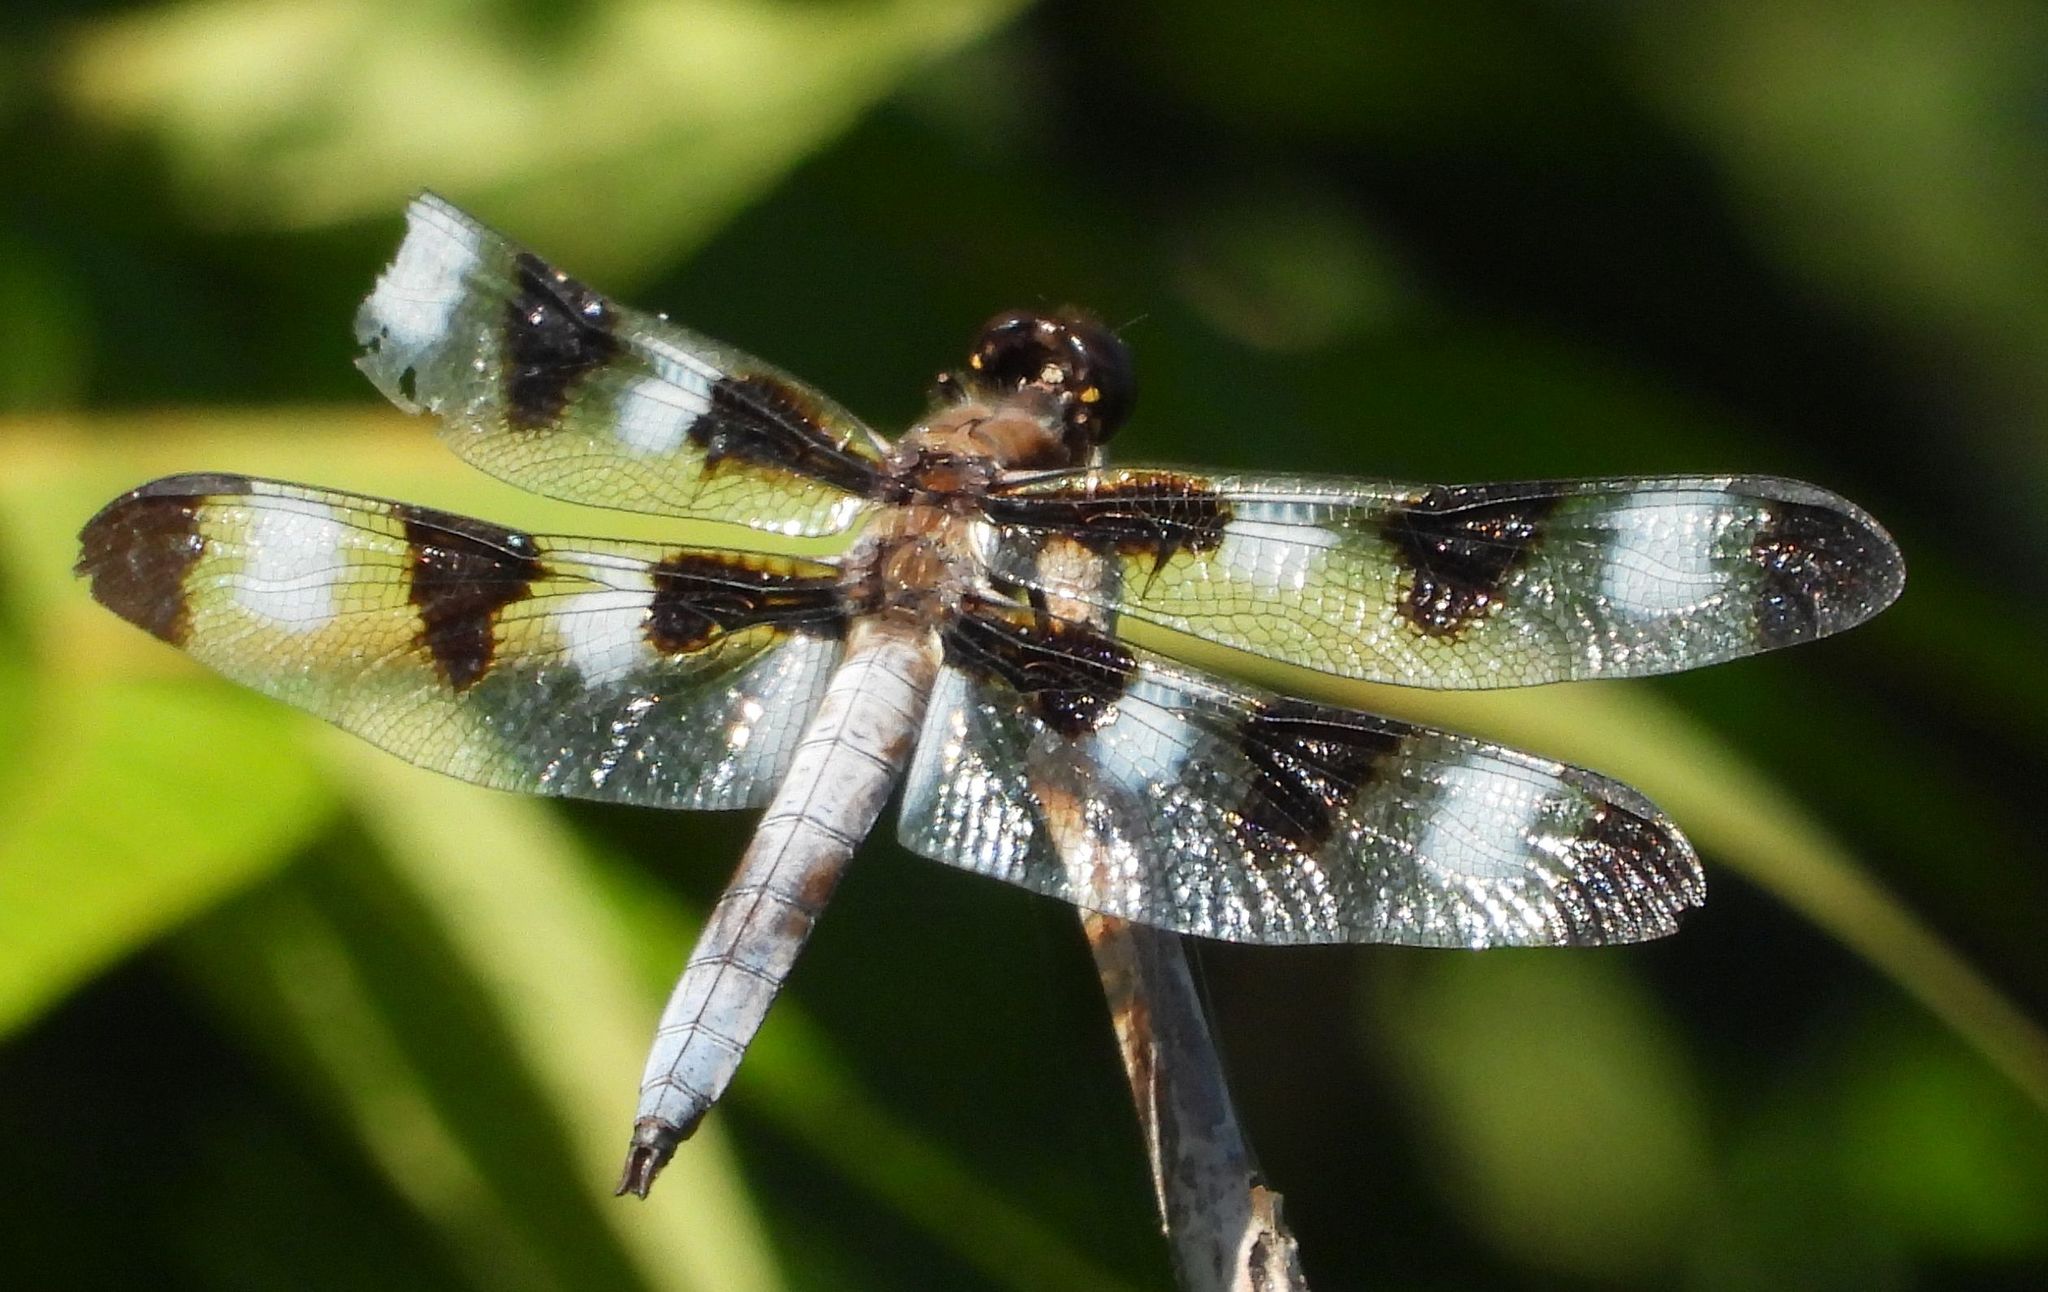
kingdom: Animalia
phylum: Arthropoda
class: Insecta
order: Odonata
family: Libellulidae
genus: Libellula
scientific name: Libellula pulchella
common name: Twelve-spotted skimmer
